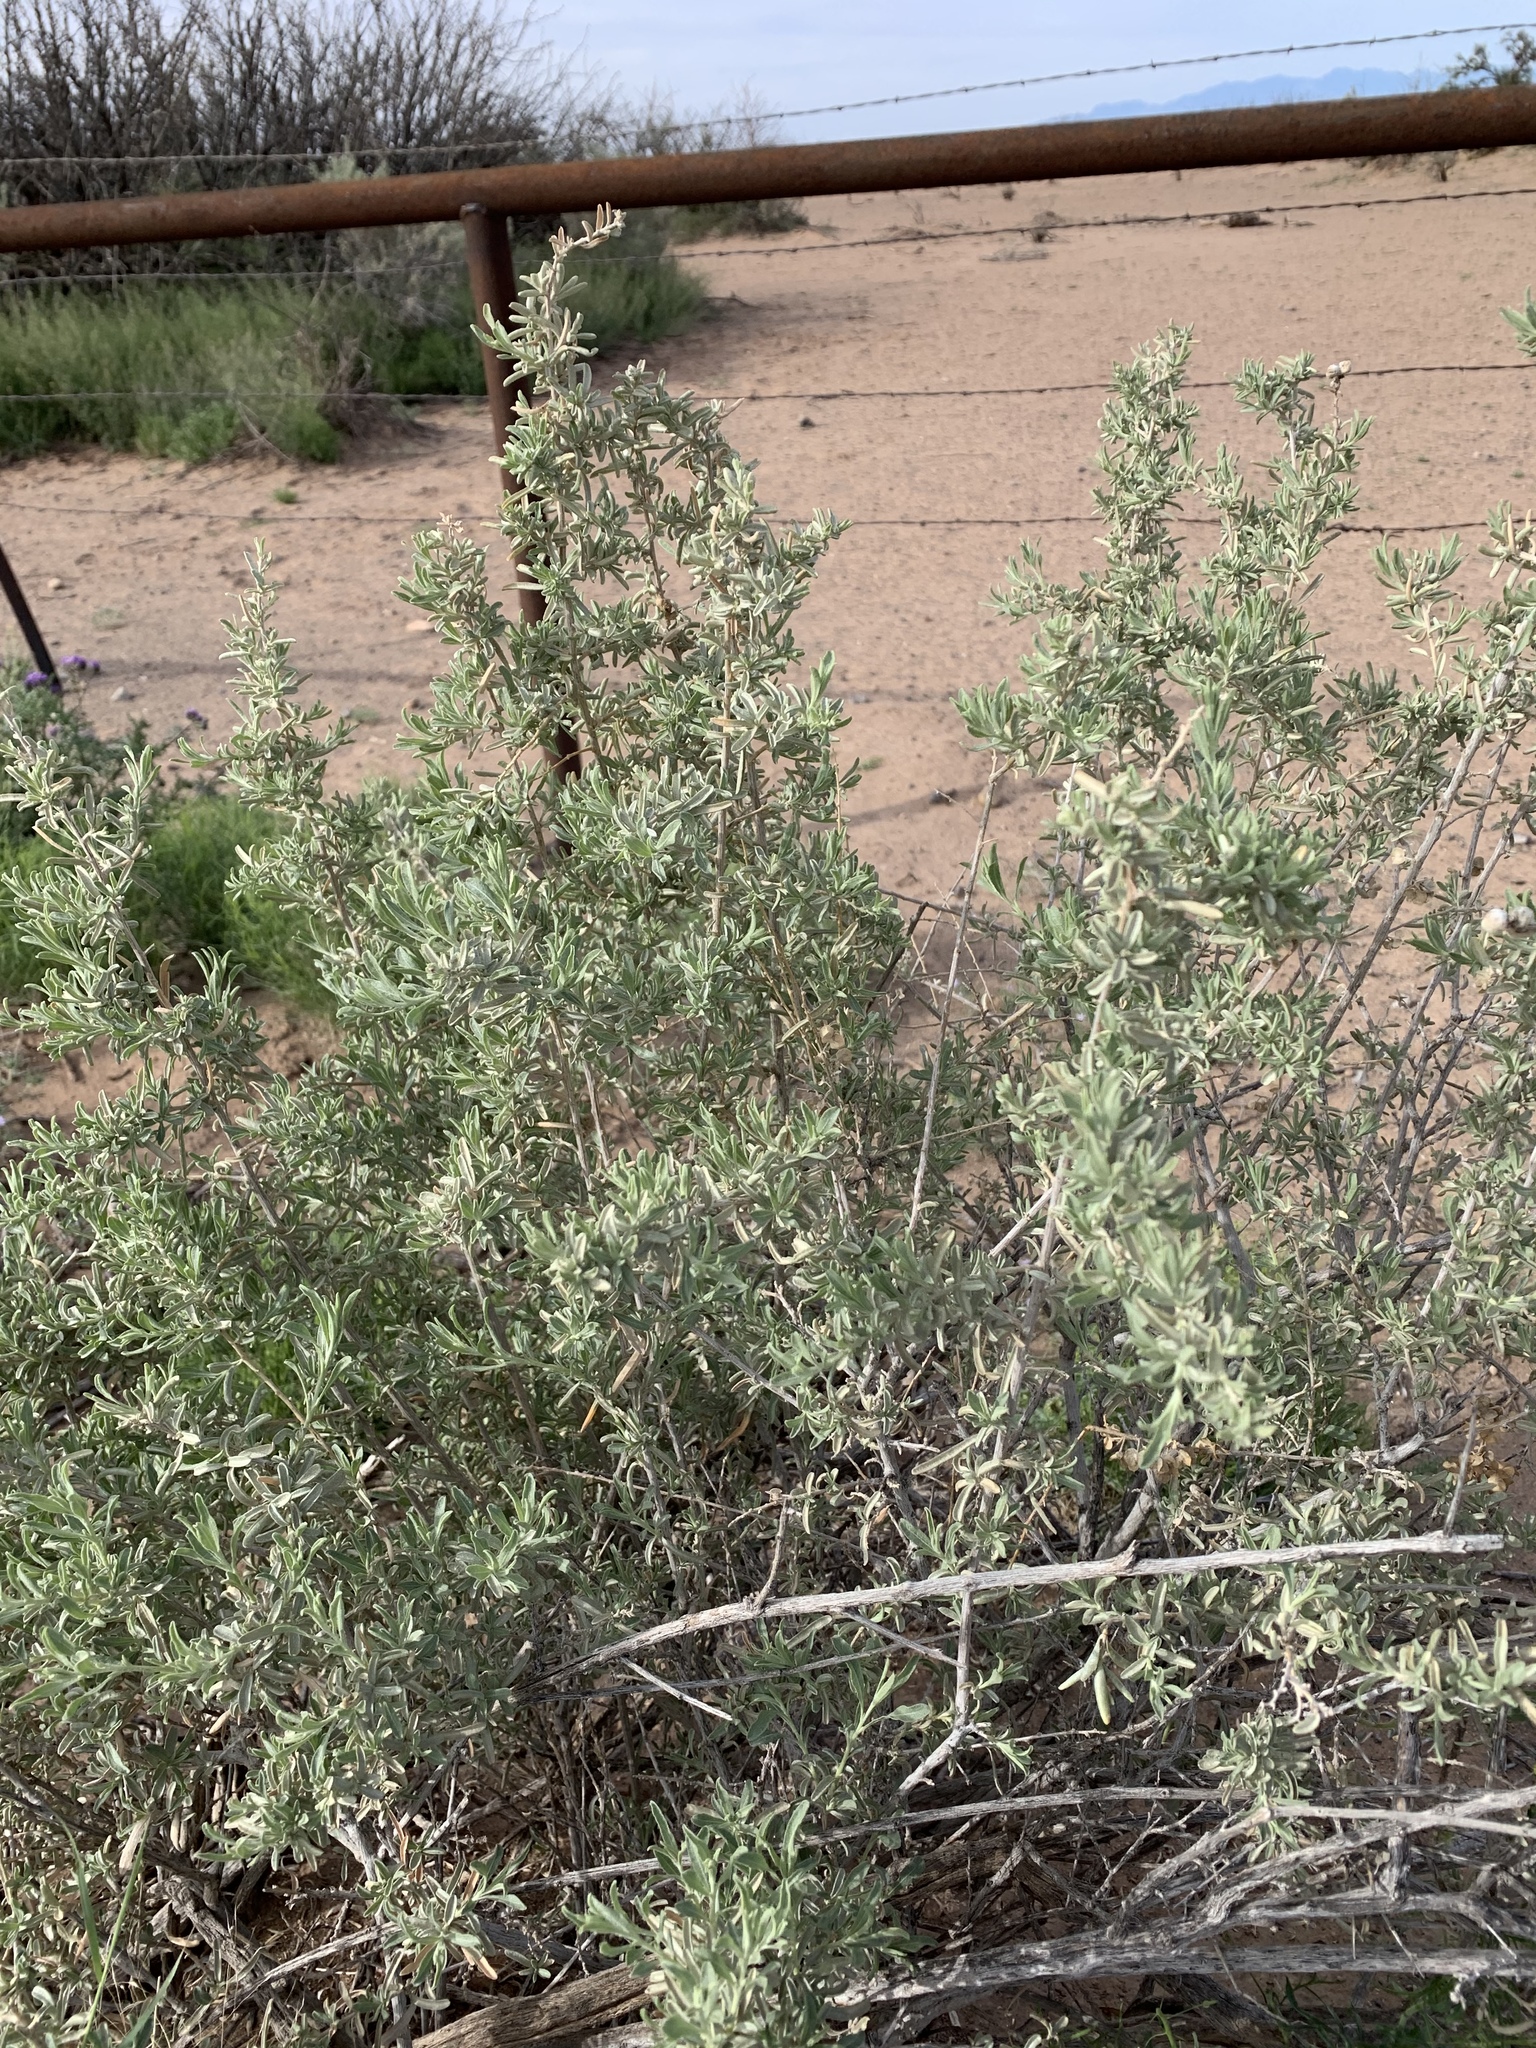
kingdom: Plantae
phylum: Tracheophyta
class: Magnoliopsida
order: Caryophyllales
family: Amaranthaceae
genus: Atriplex
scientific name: Atriplex canescens
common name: Four-wing saltbush
